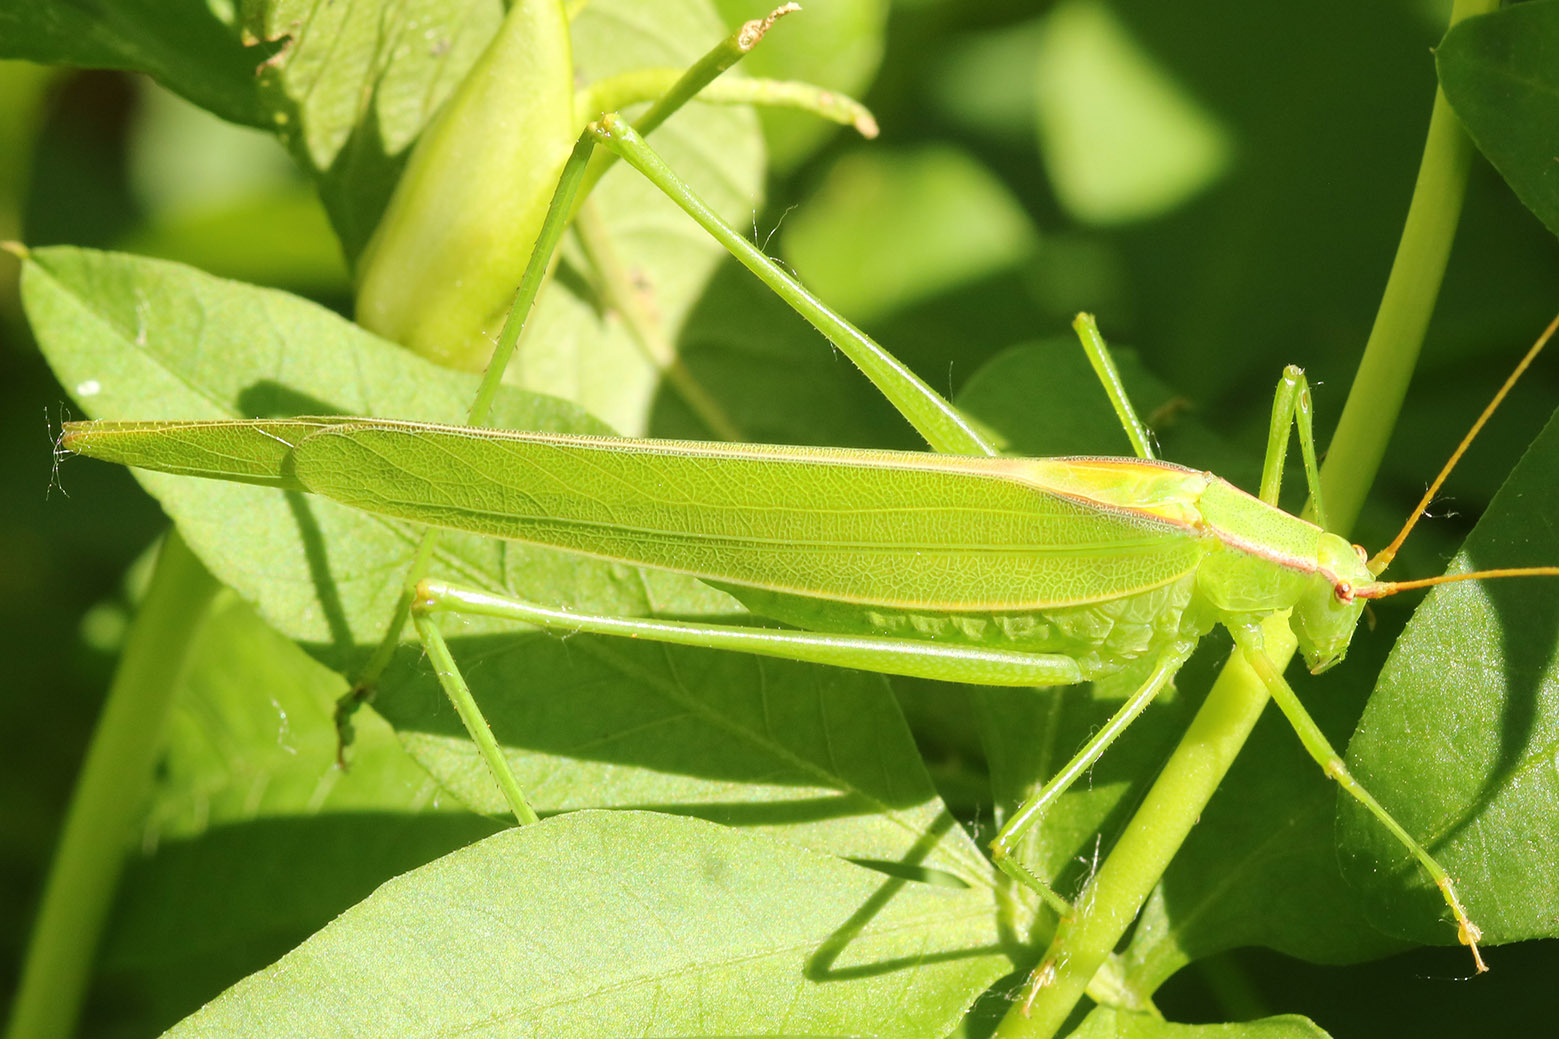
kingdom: Animalia
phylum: Arthropoda
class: Insecta
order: Orthoptera
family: Tettigoniidae
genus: Hyperophora
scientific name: Hyperophora major
